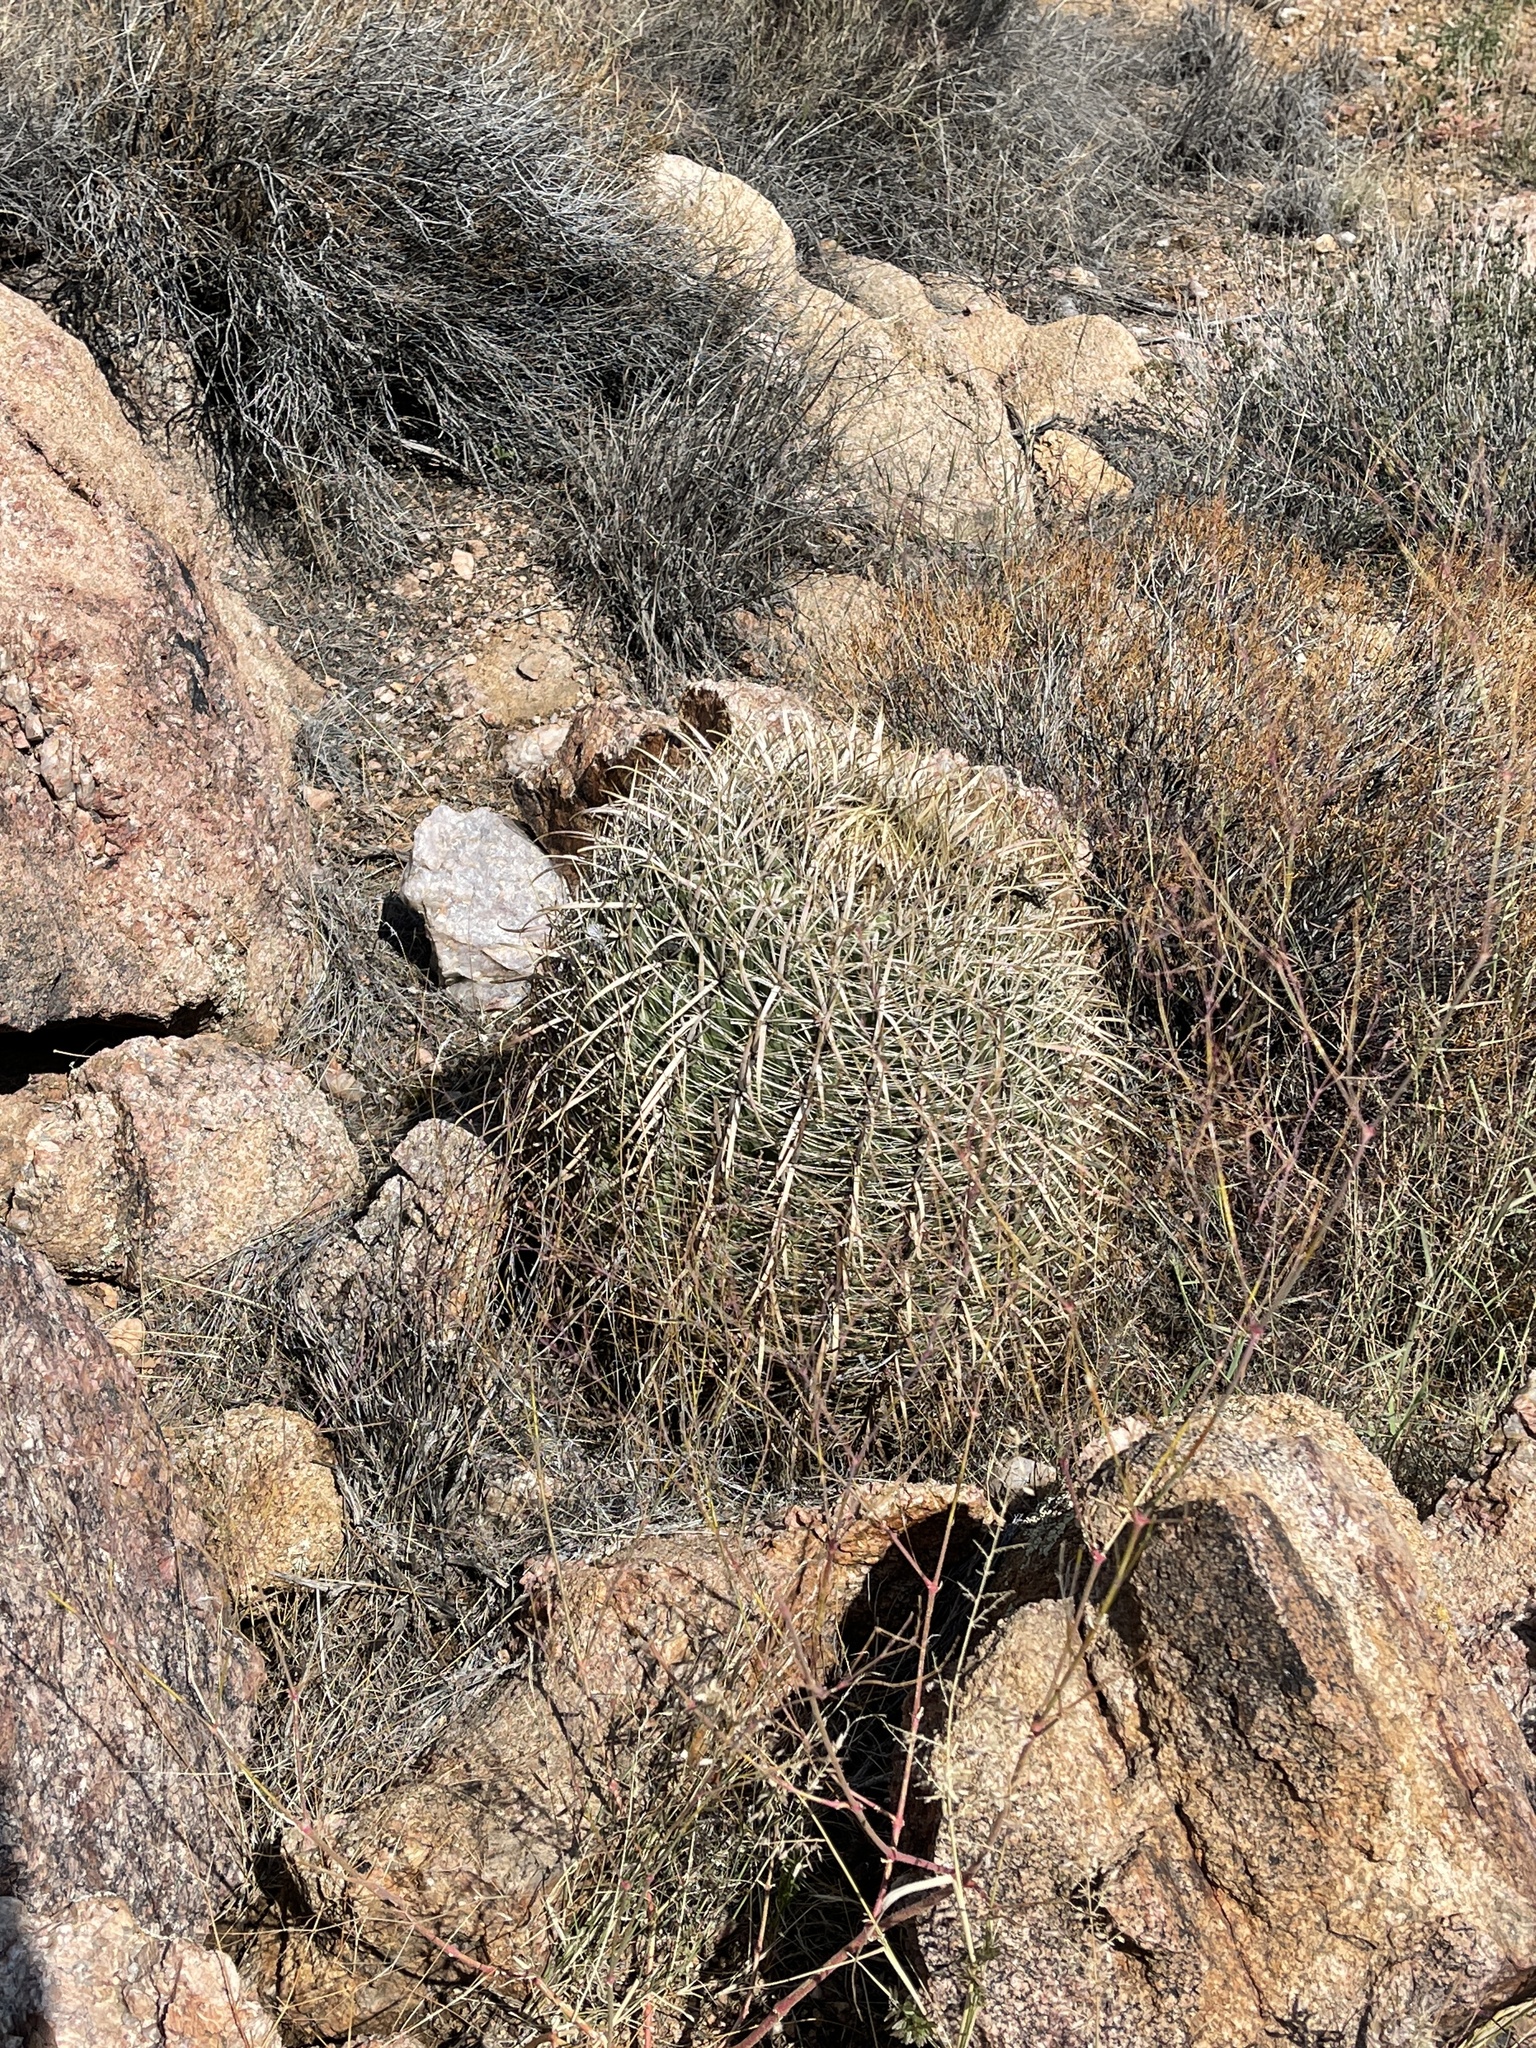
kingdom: Plantae
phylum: Tracheophyta
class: Magnoliopsida
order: Caryophyllales
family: Cactaceae
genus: Ferocactus
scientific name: Ferocactus cylindraceus
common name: California barrel cactus
